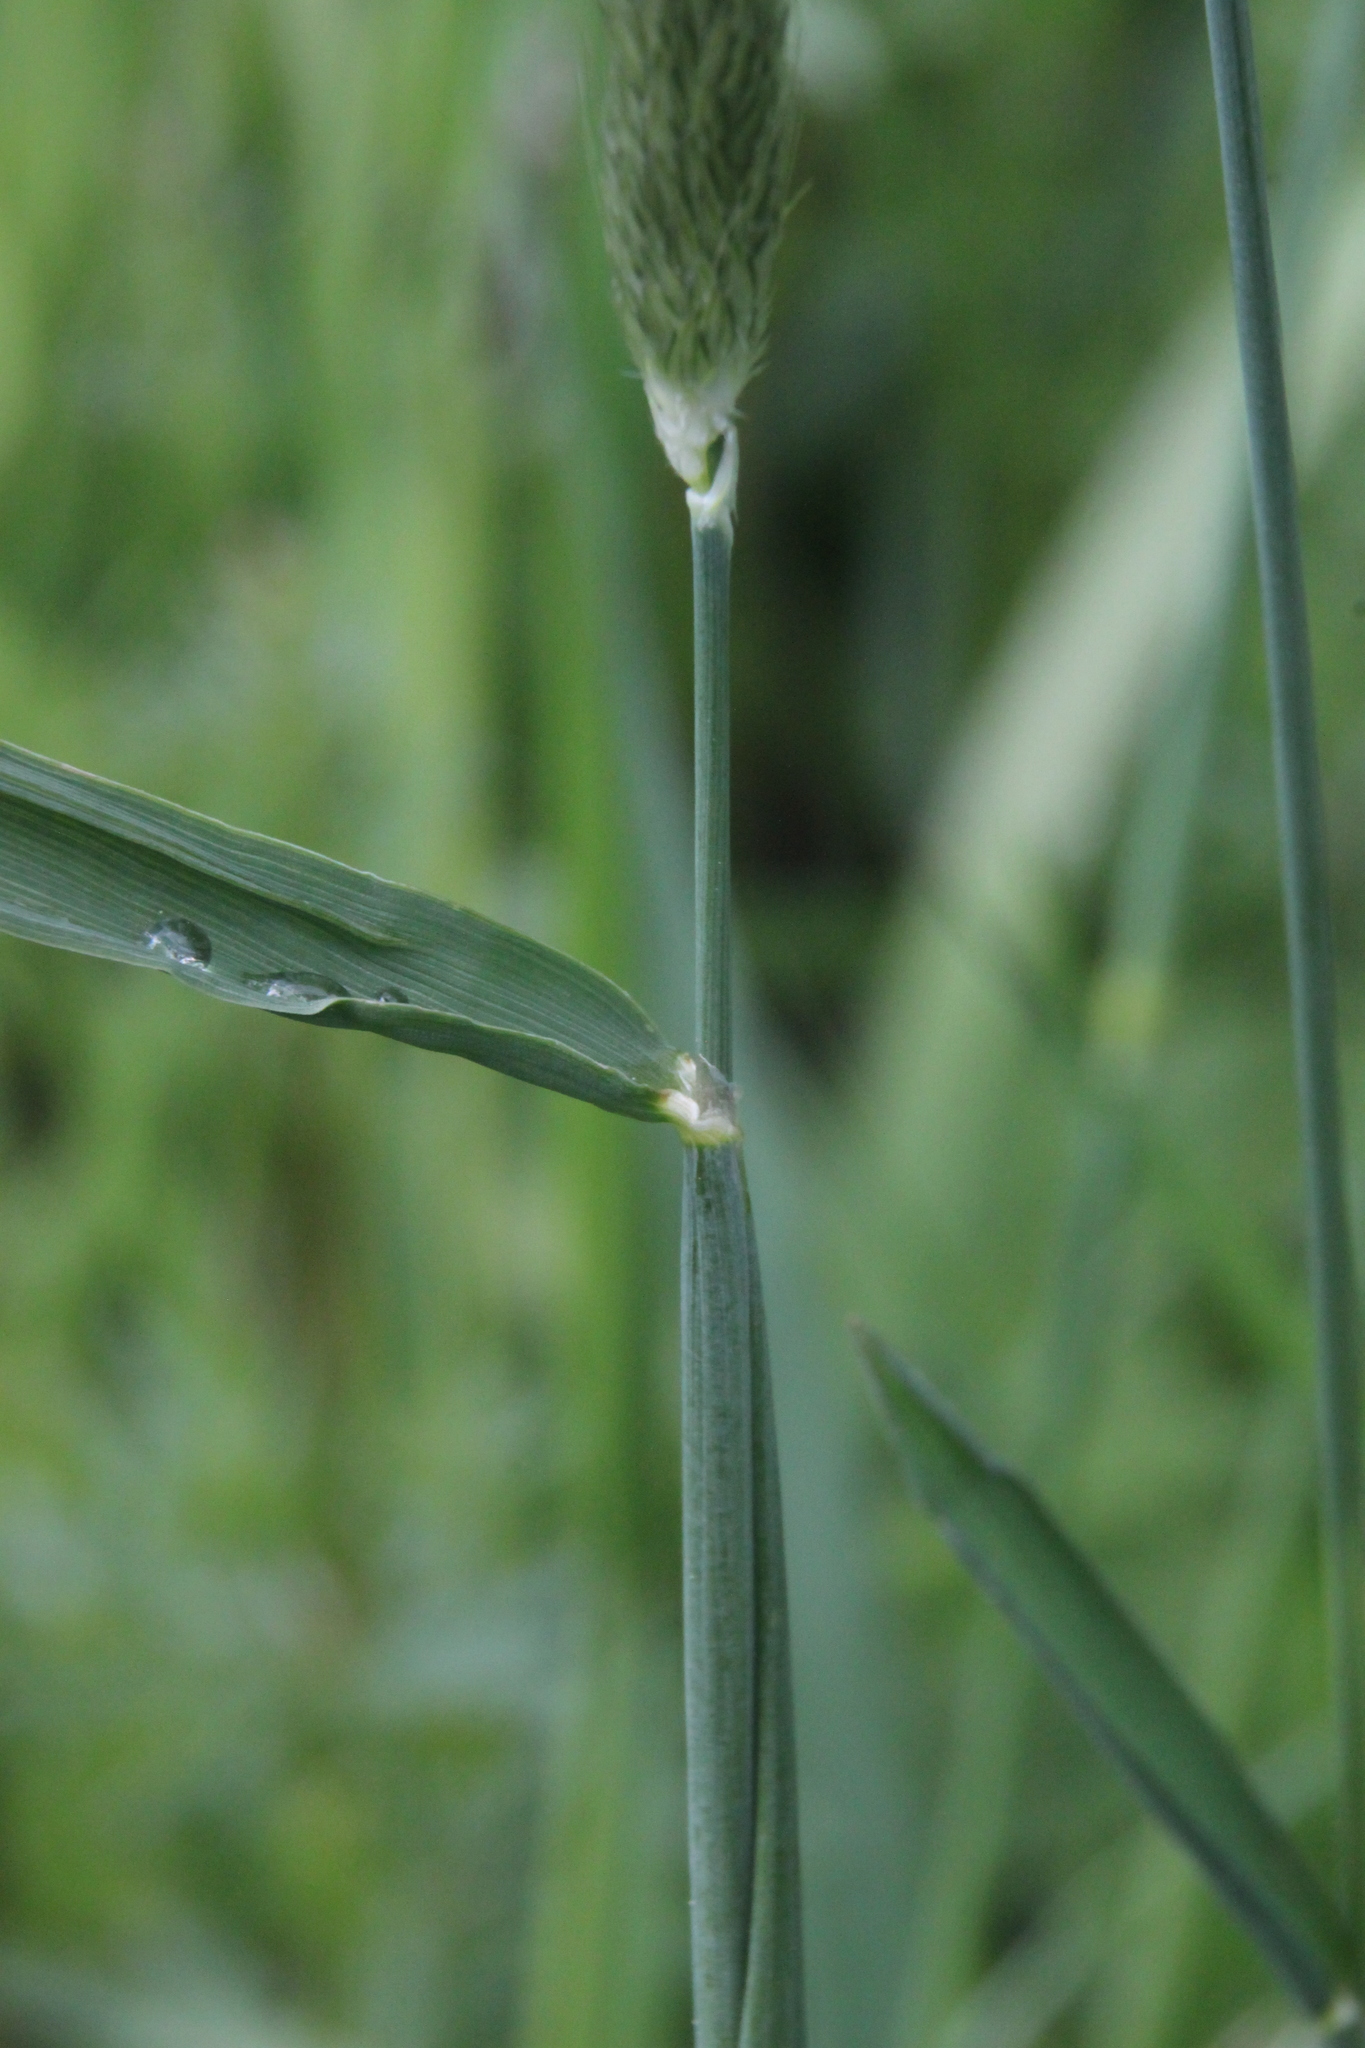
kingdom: Plantae
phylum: Tracheophyta
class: Liliopsida
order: Poales
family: Poaceae
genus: Alopecurus
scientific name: Alopecurus pratensis
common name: Meadow foxtail
